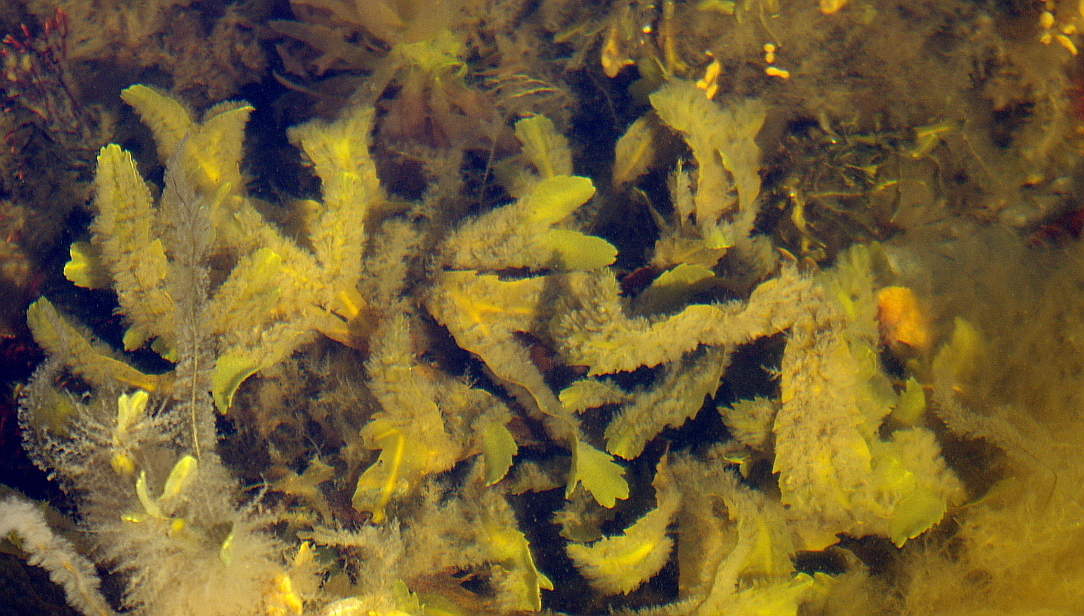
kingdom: Chromista
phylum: Ochrophyta
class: Phaeophyceae
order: Fucales
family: Fucaceae
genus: Fucus
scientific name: Fucus serratus
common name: Toothed wrack
